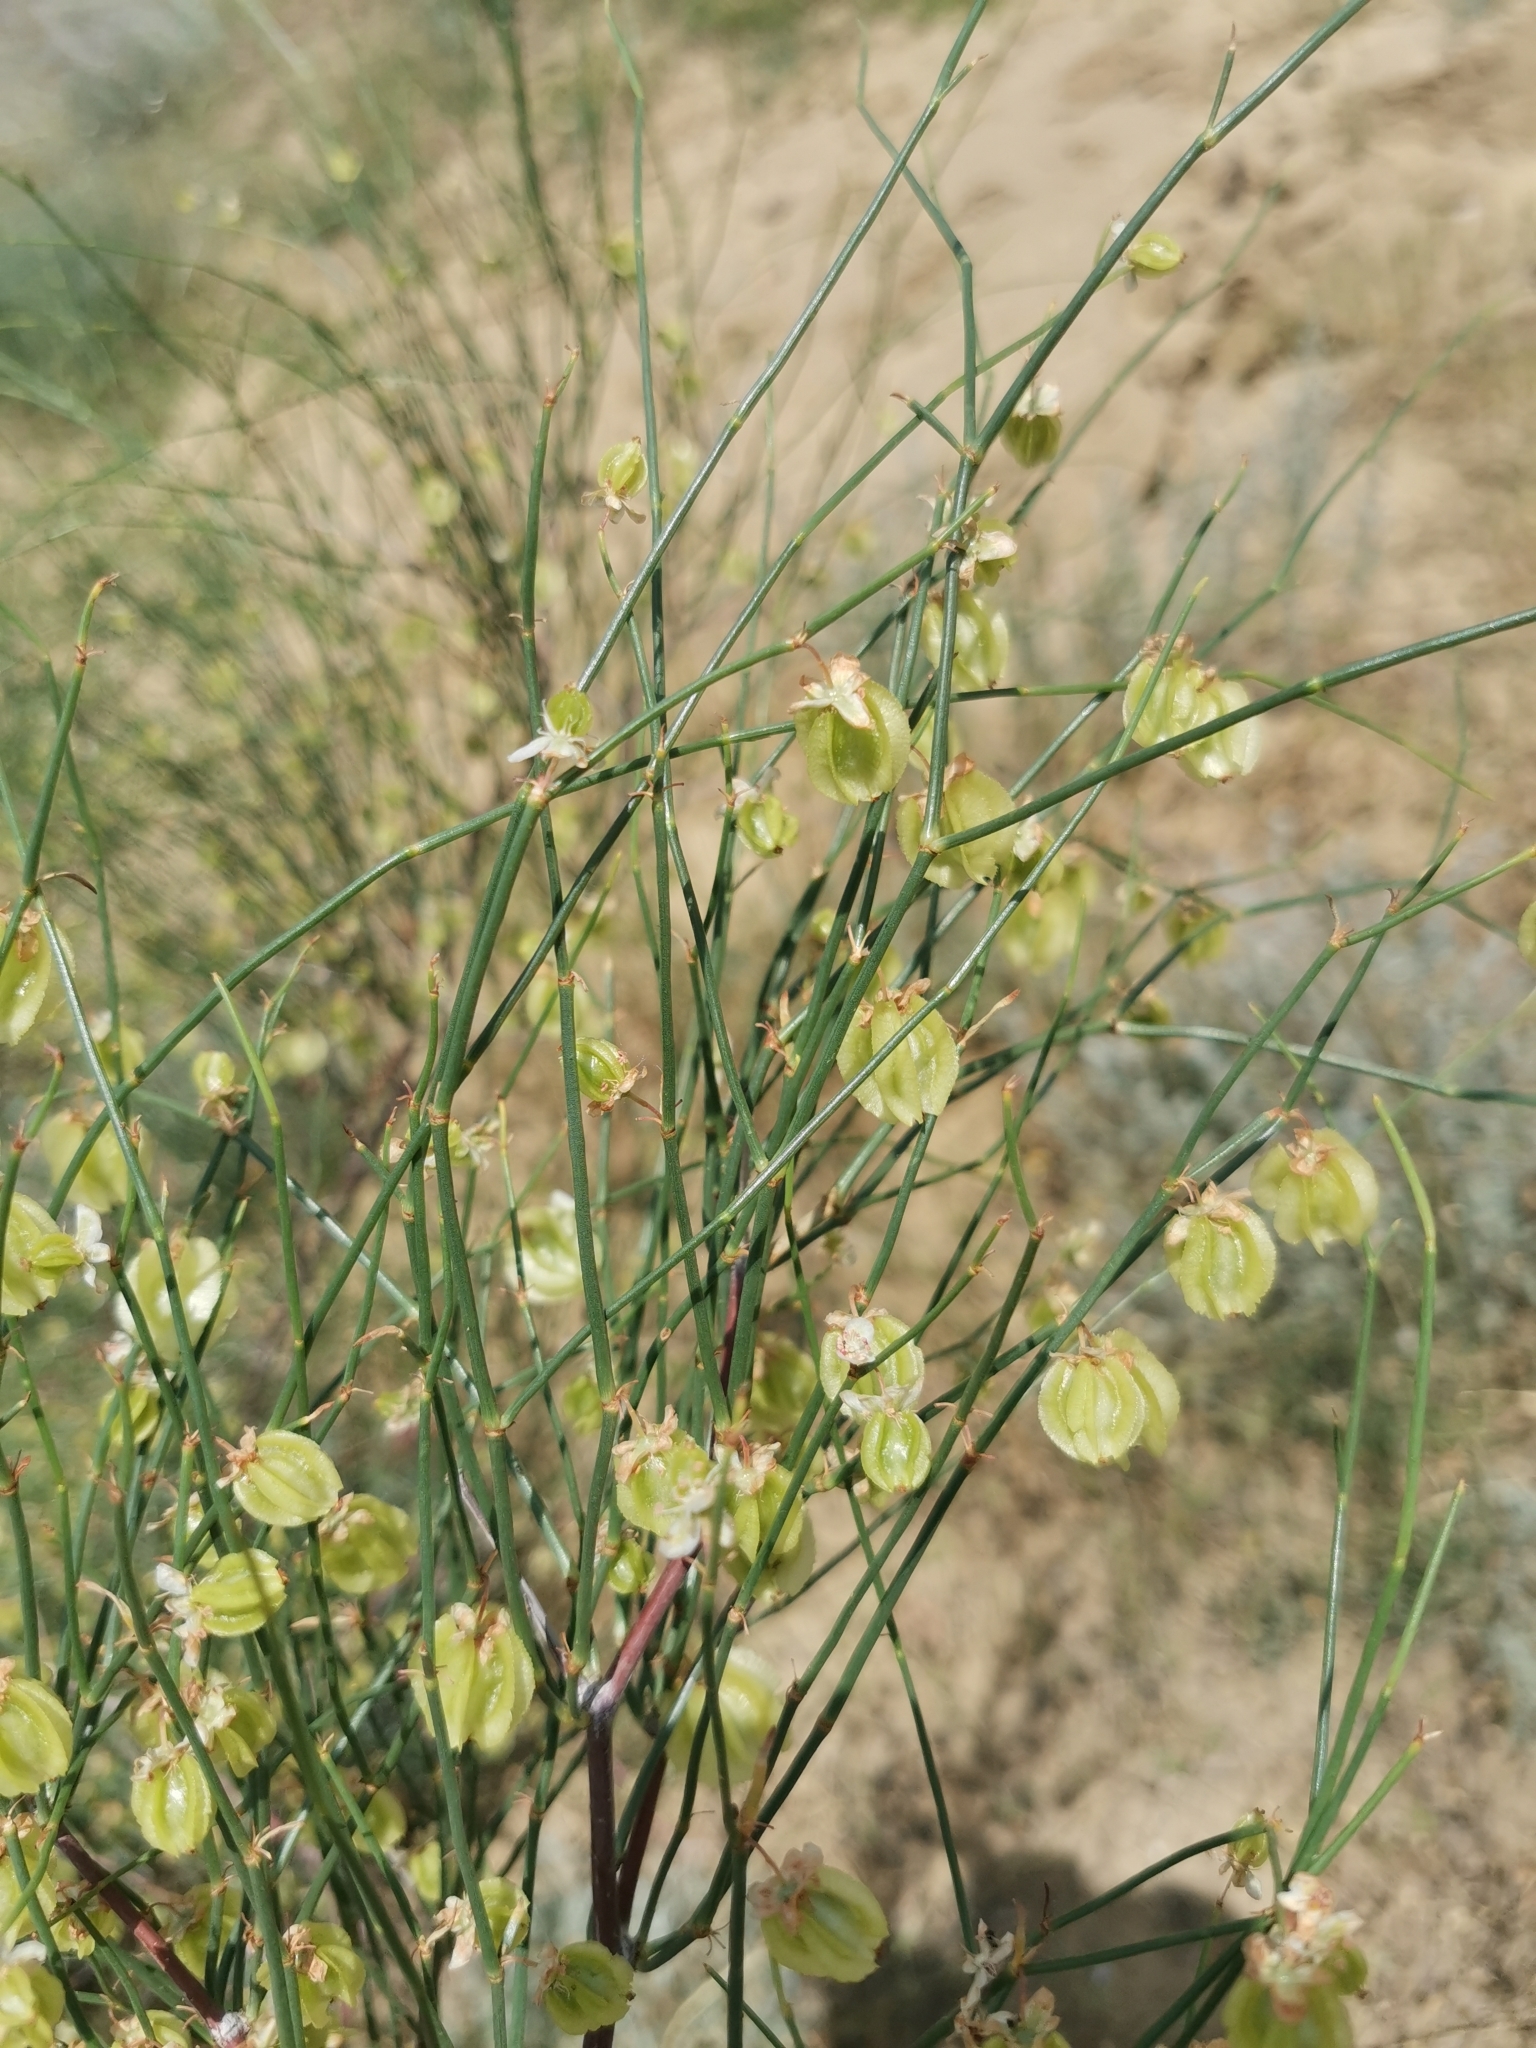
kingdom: Plantae
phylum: Tracheophyta
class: Magnoliopsida
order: Caryophyllales
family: Polygonaceae
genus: Calligonum
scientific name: Calligonum aphyllum
